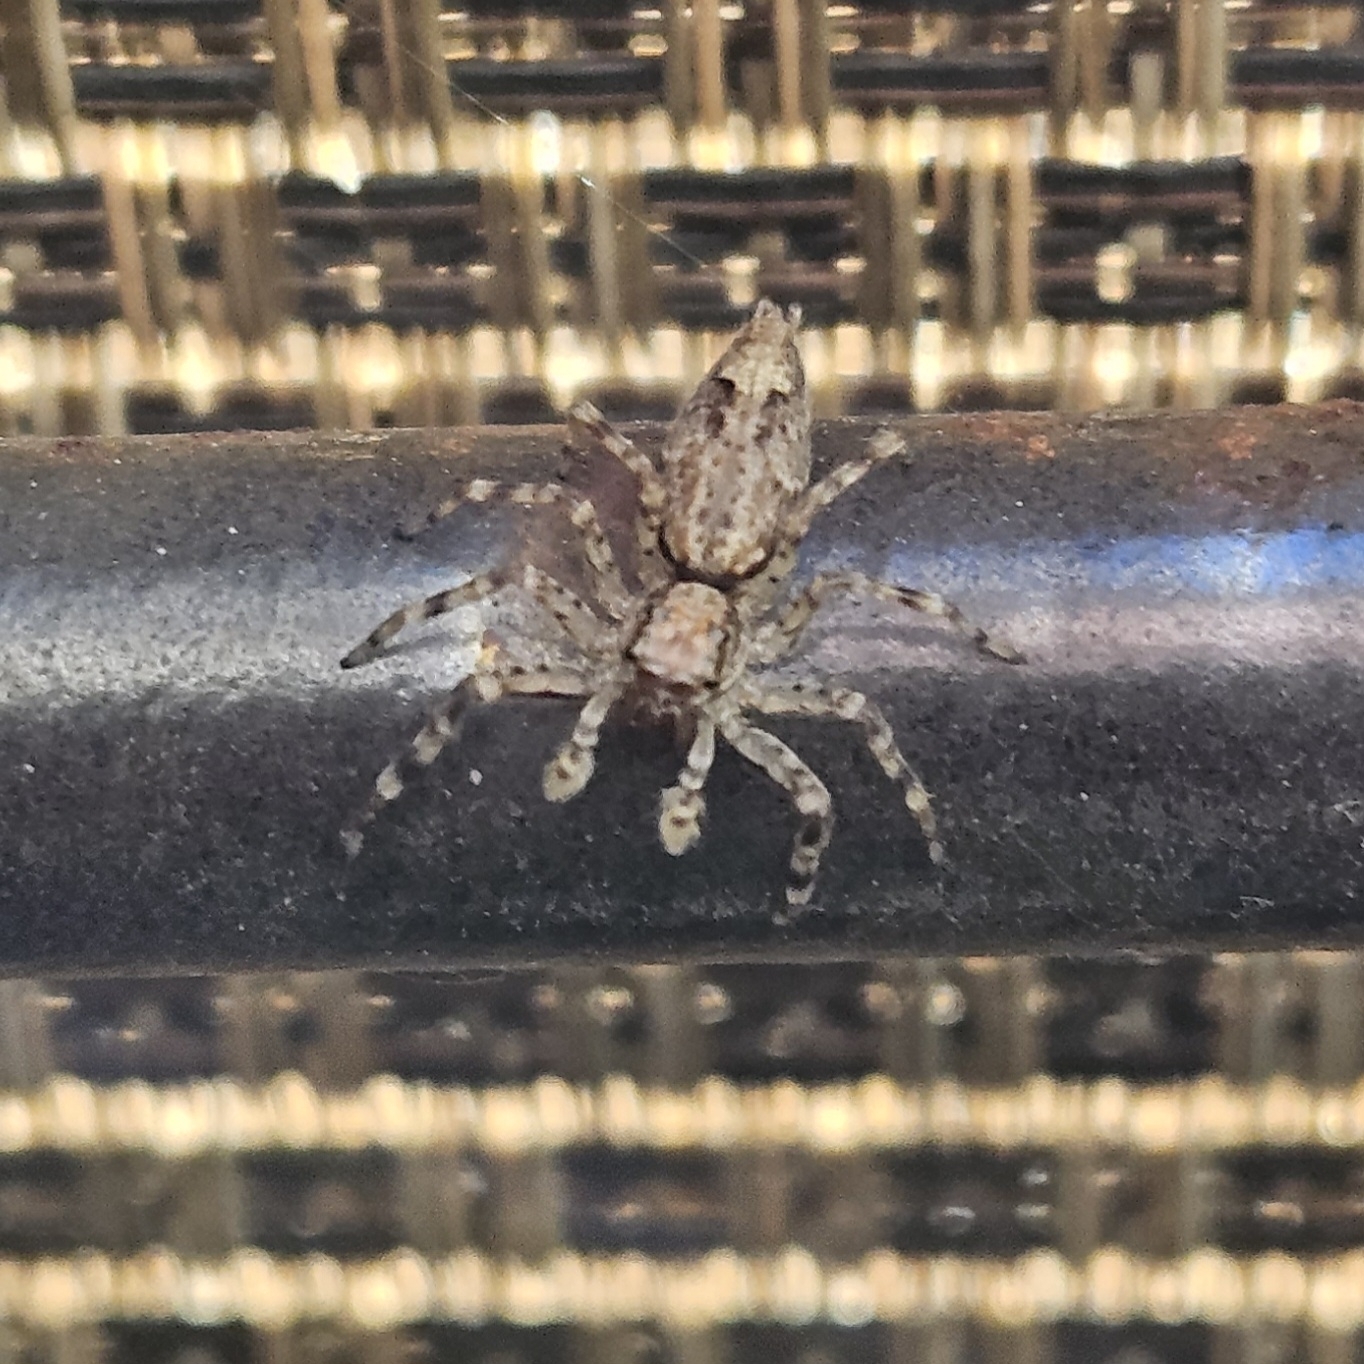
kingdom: Animalia
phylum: Arthropoda
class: Arachnida
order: Araneae
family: Salticidae
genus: Helpis
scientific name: Helpis minitabunda
